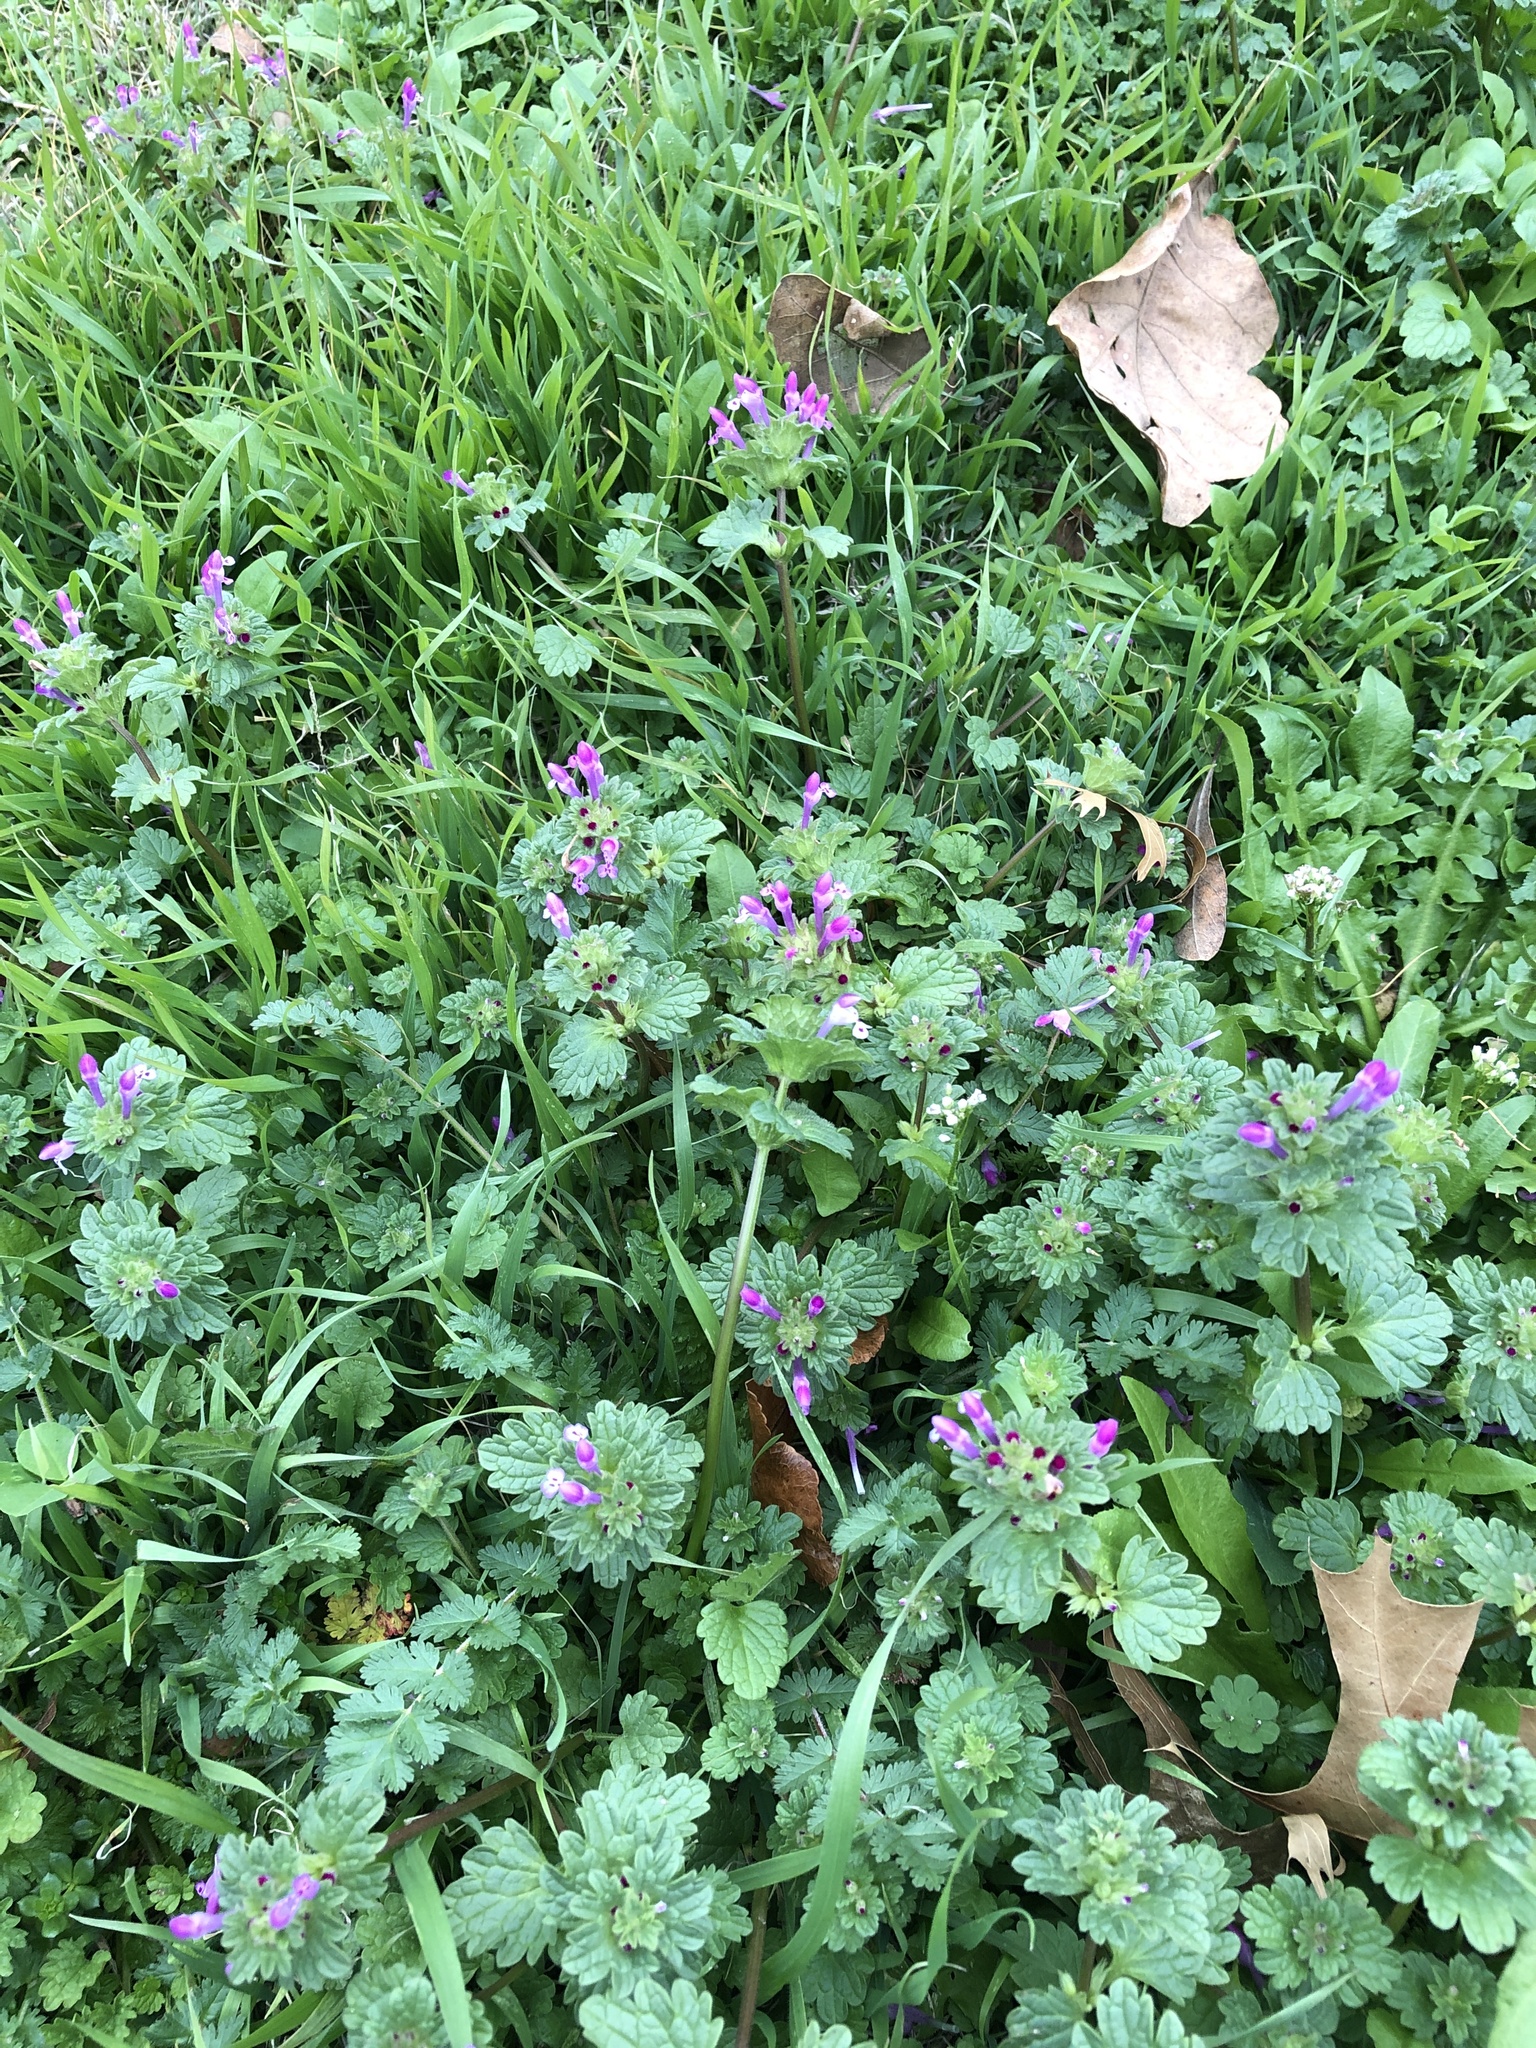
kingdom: Plantae
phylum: Tracheophyta
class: Magnoliopsida
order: Lamiales
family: Lamiaceae
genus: Lamium
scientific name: Lamium amplexicaule
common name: Henbit dead-nettle
